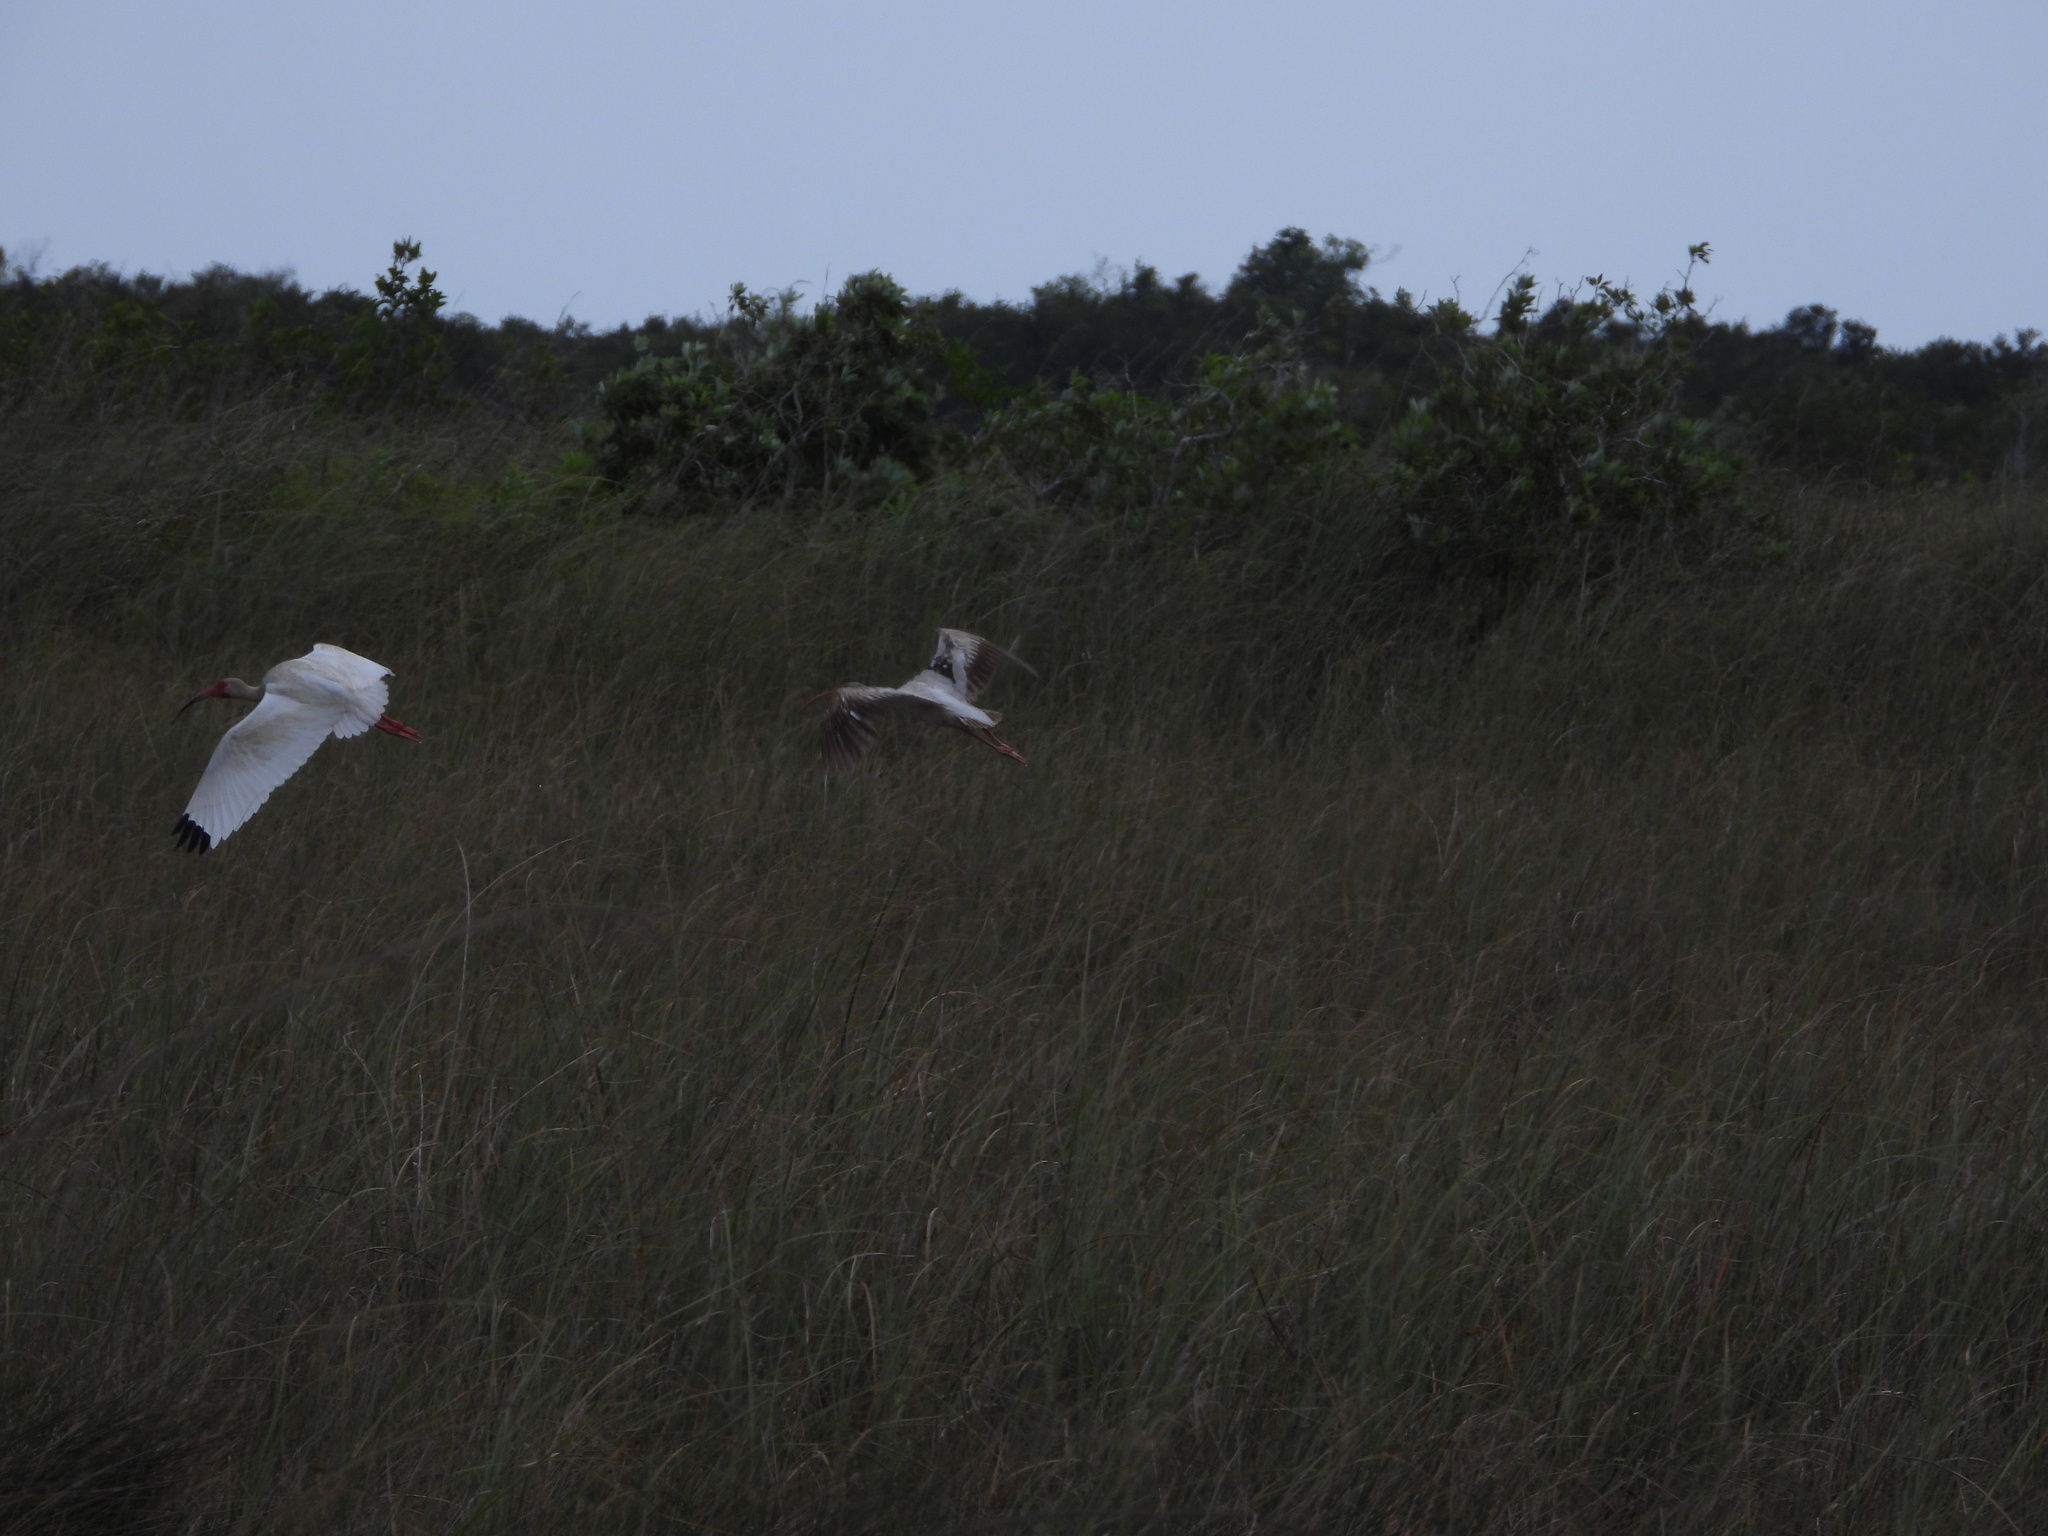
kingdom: Animalia
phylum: Chordata
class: Aves
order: Pelecaniformes
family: Threskiornithidae
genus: Eudocimus
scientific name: Eudocimus albus
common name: White ibis
